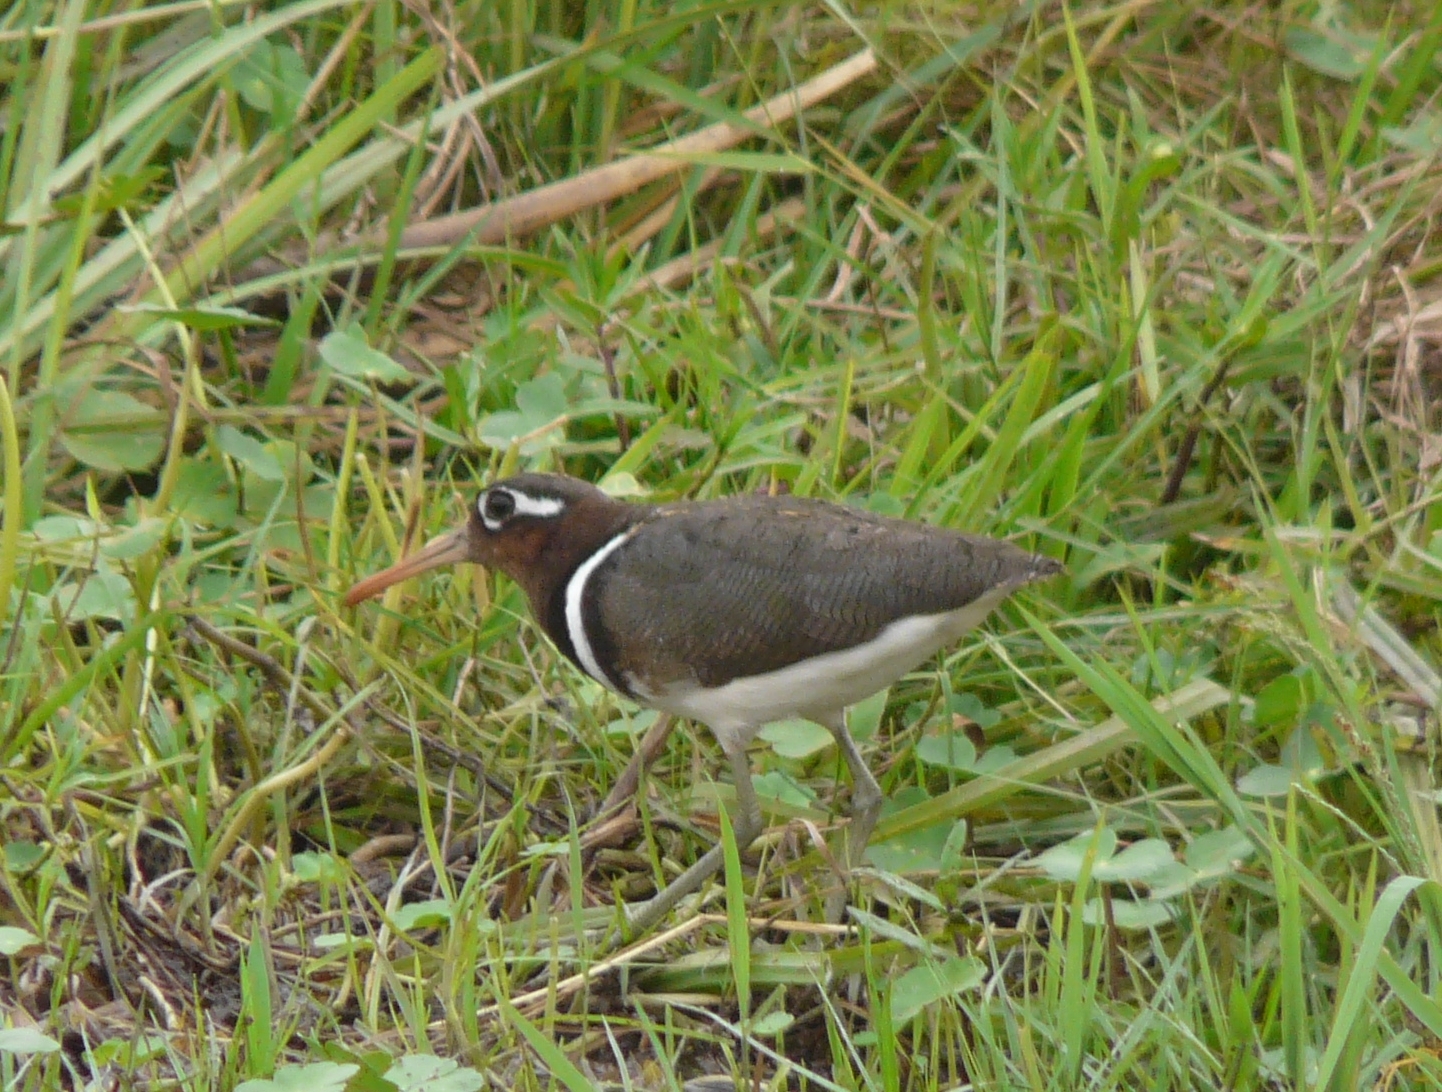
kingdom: Animalia
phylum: Chordata
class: Aves
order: Charadriiformes
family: Rostratulidae
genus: Rostratula
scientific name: Rostratula benghalensis
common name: Greater painted-snipe
